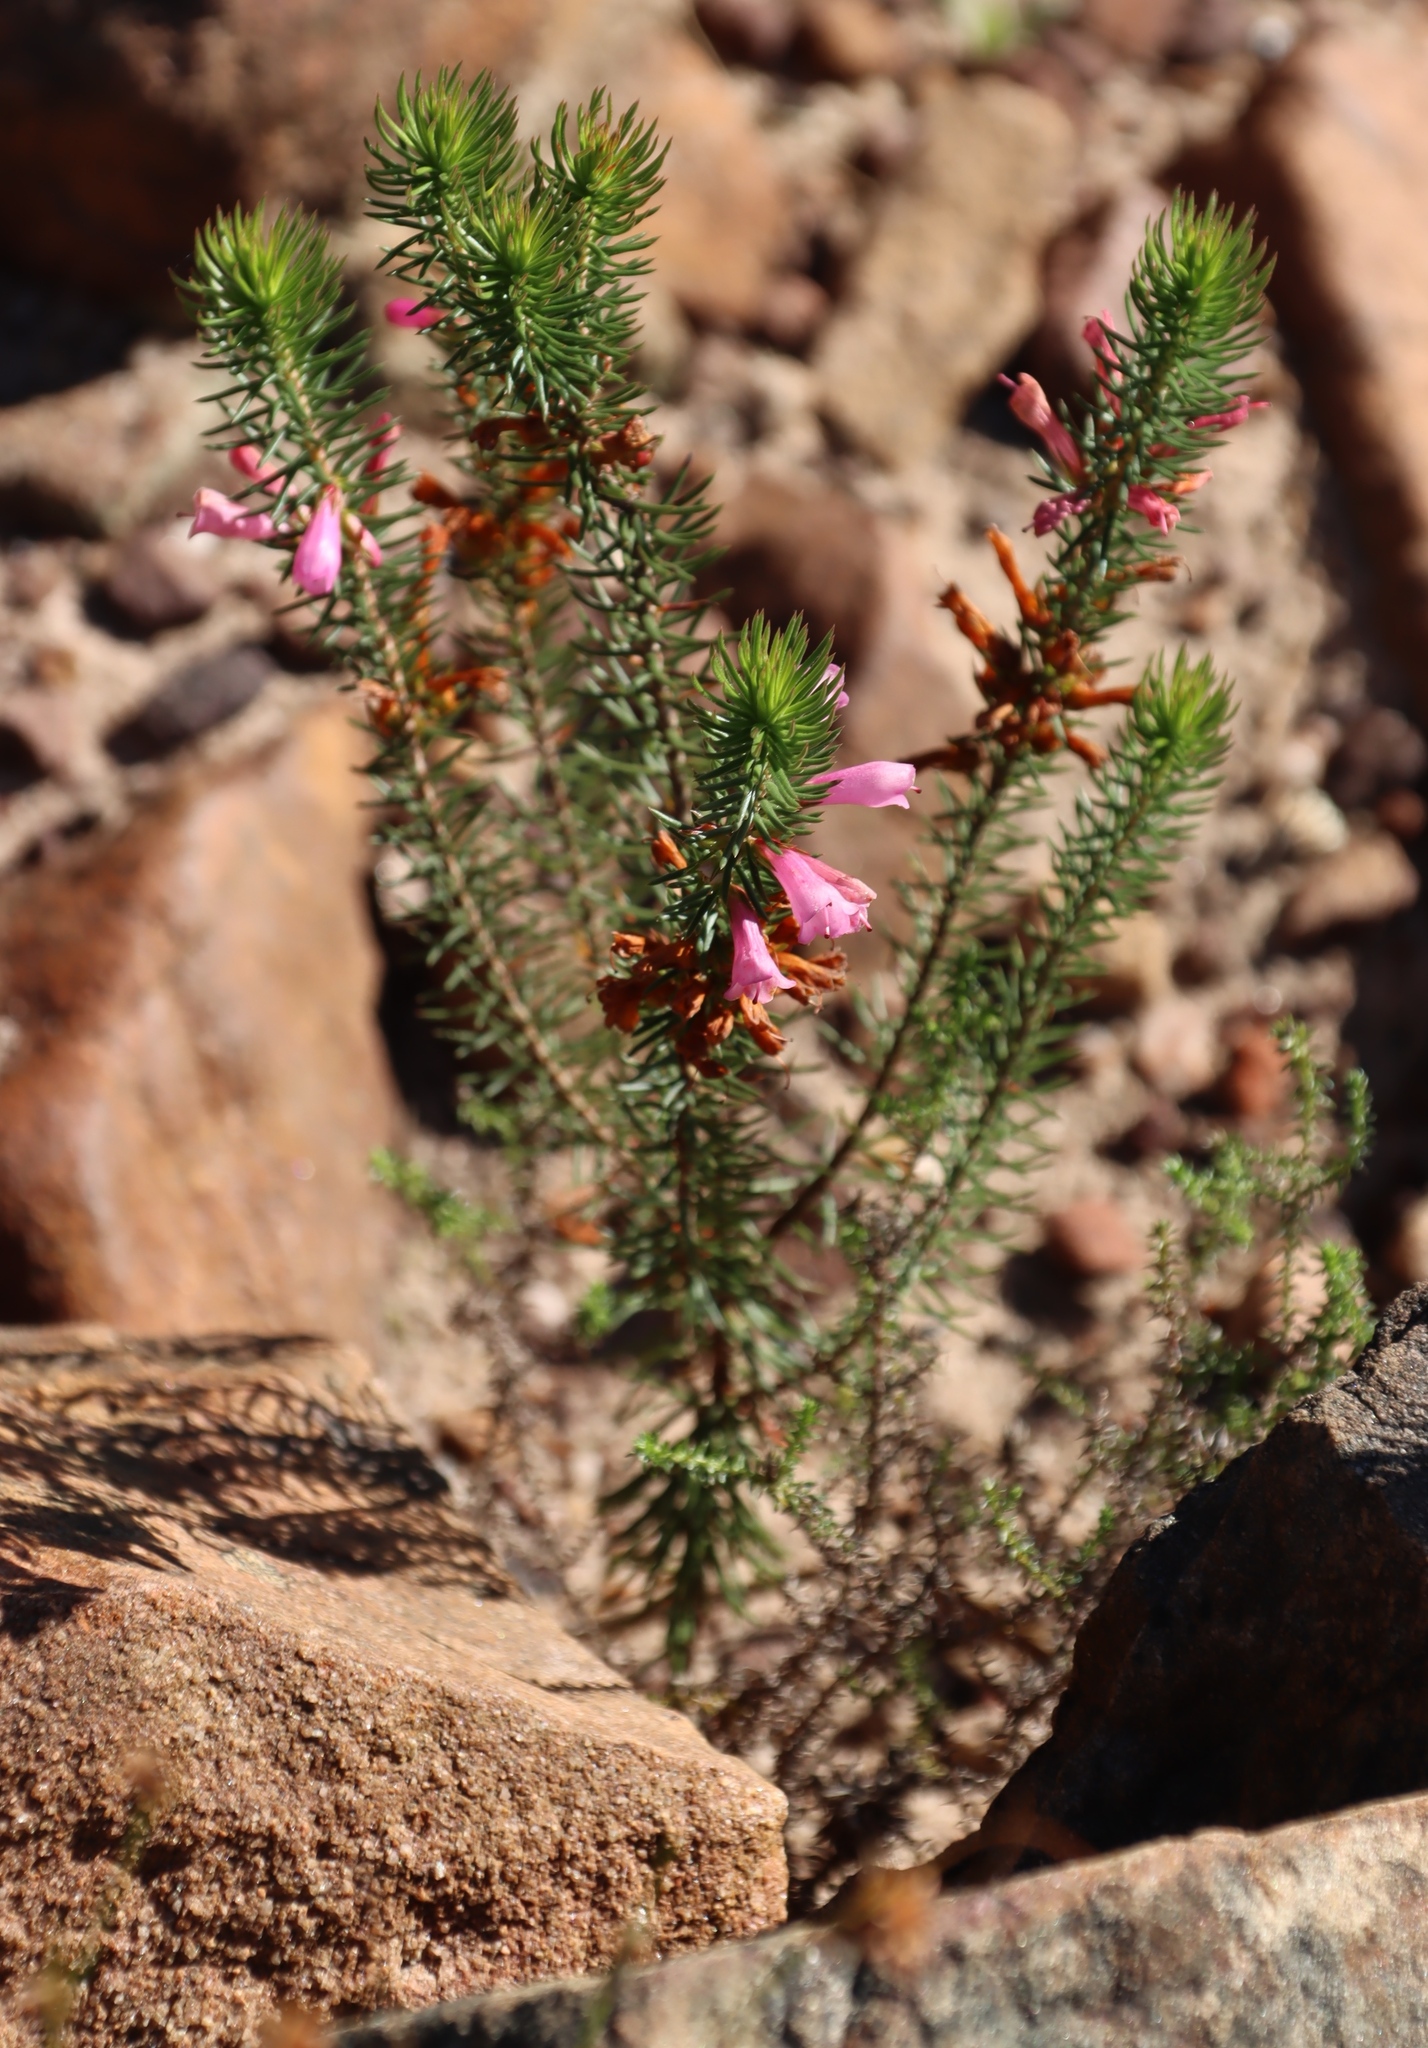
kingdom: Plantae
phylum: Tracheophyta
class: Magnoliopsida
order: Ericales
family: Ericaceae
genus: Erica
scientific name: Erica abietina
